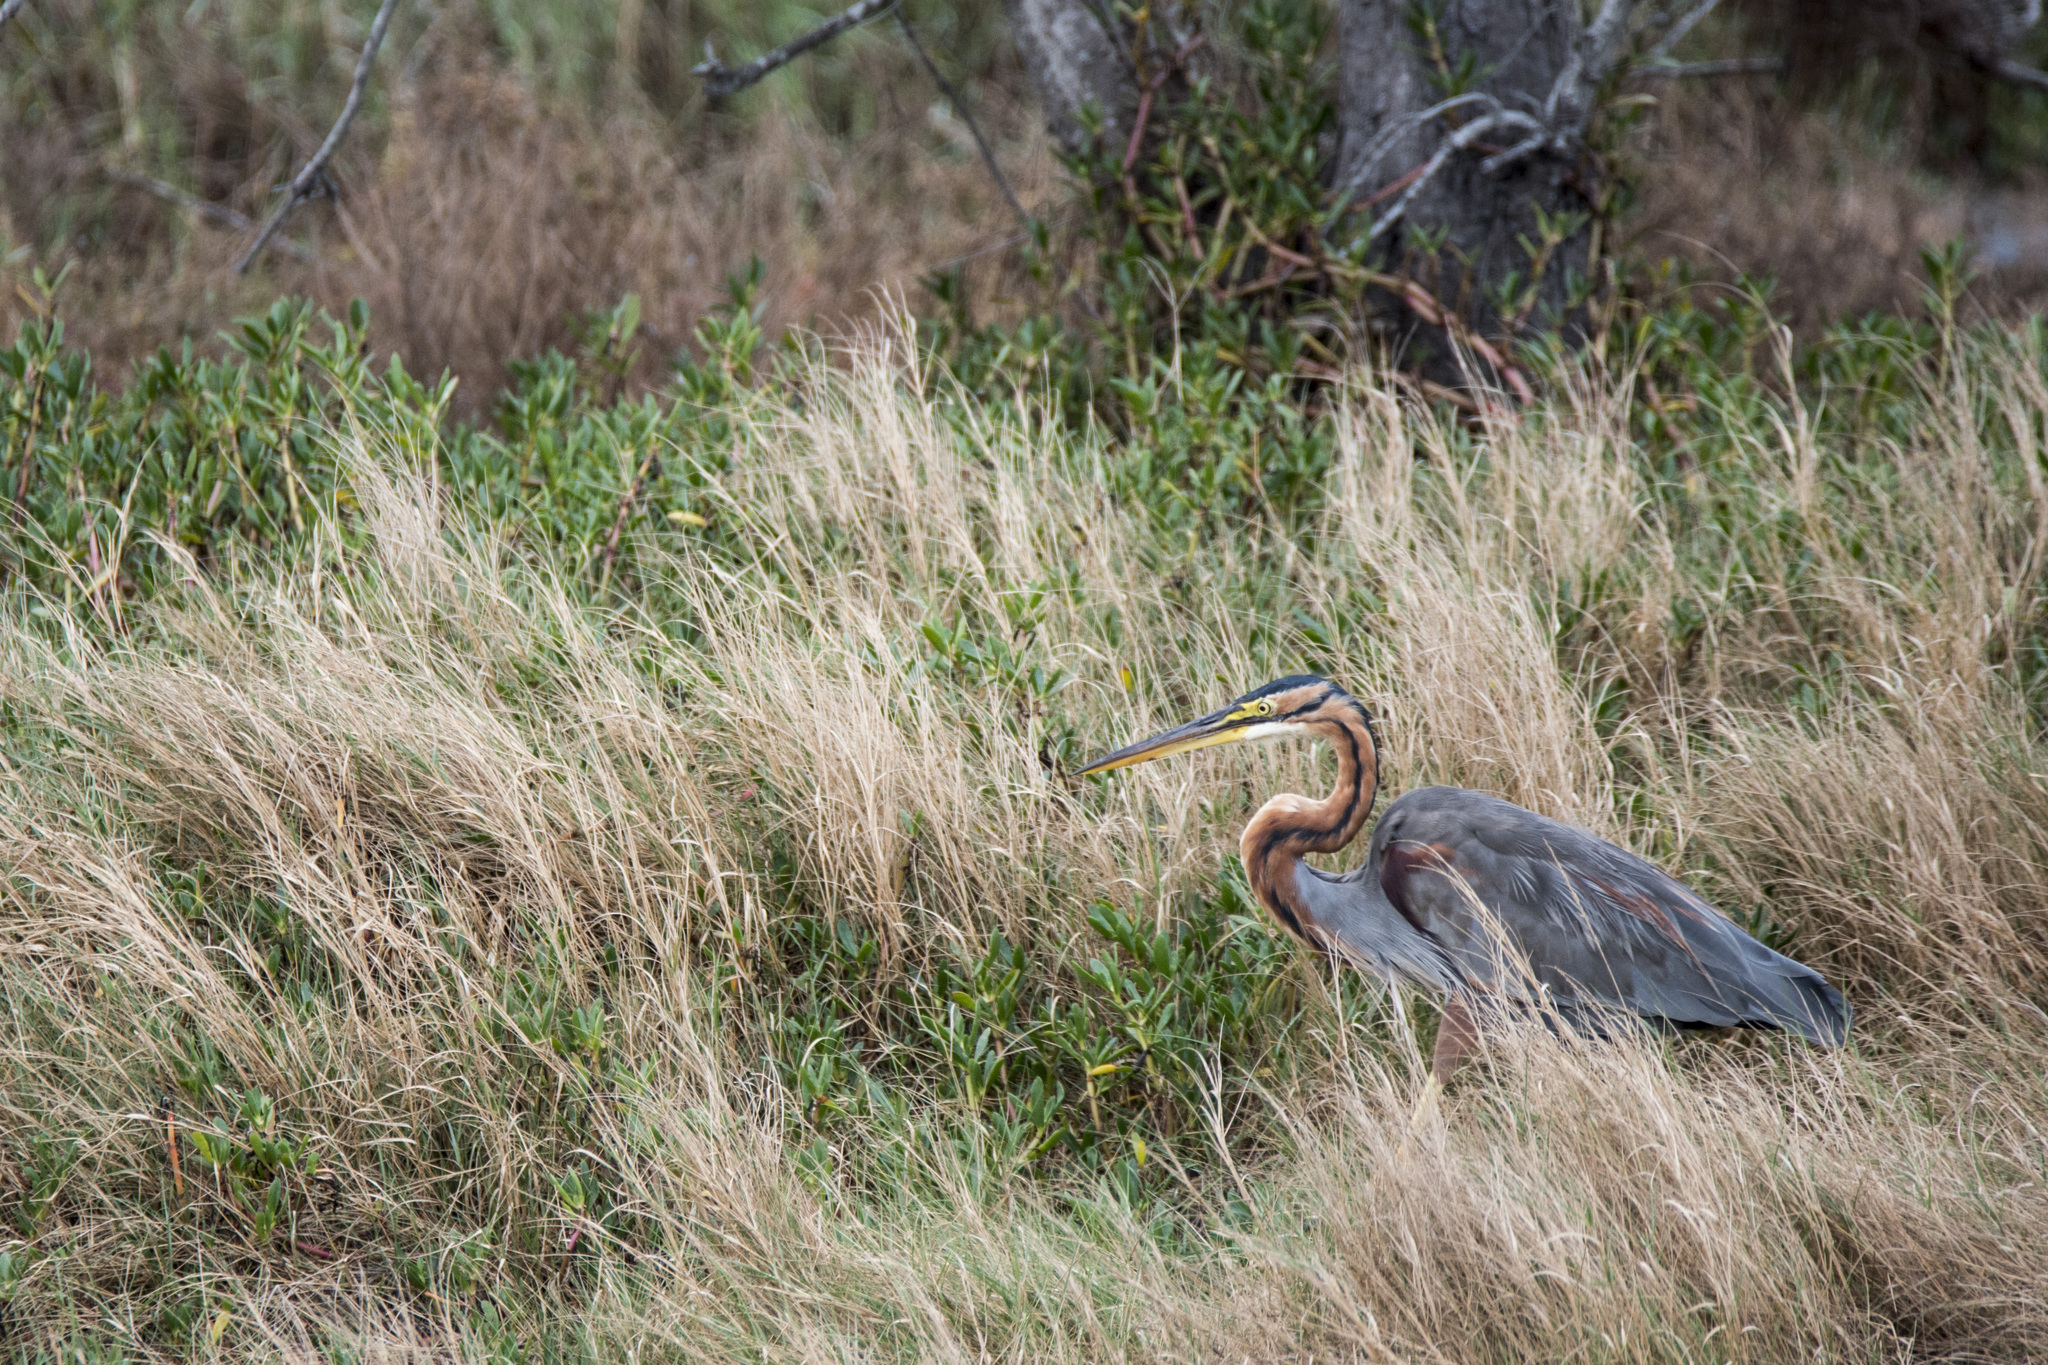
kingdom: Animalia
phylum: Chordata
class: Aves
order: Pelecaniformes
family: Ardeidae
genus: Ardea
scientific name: Ardea purpurea
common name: Purple heron
